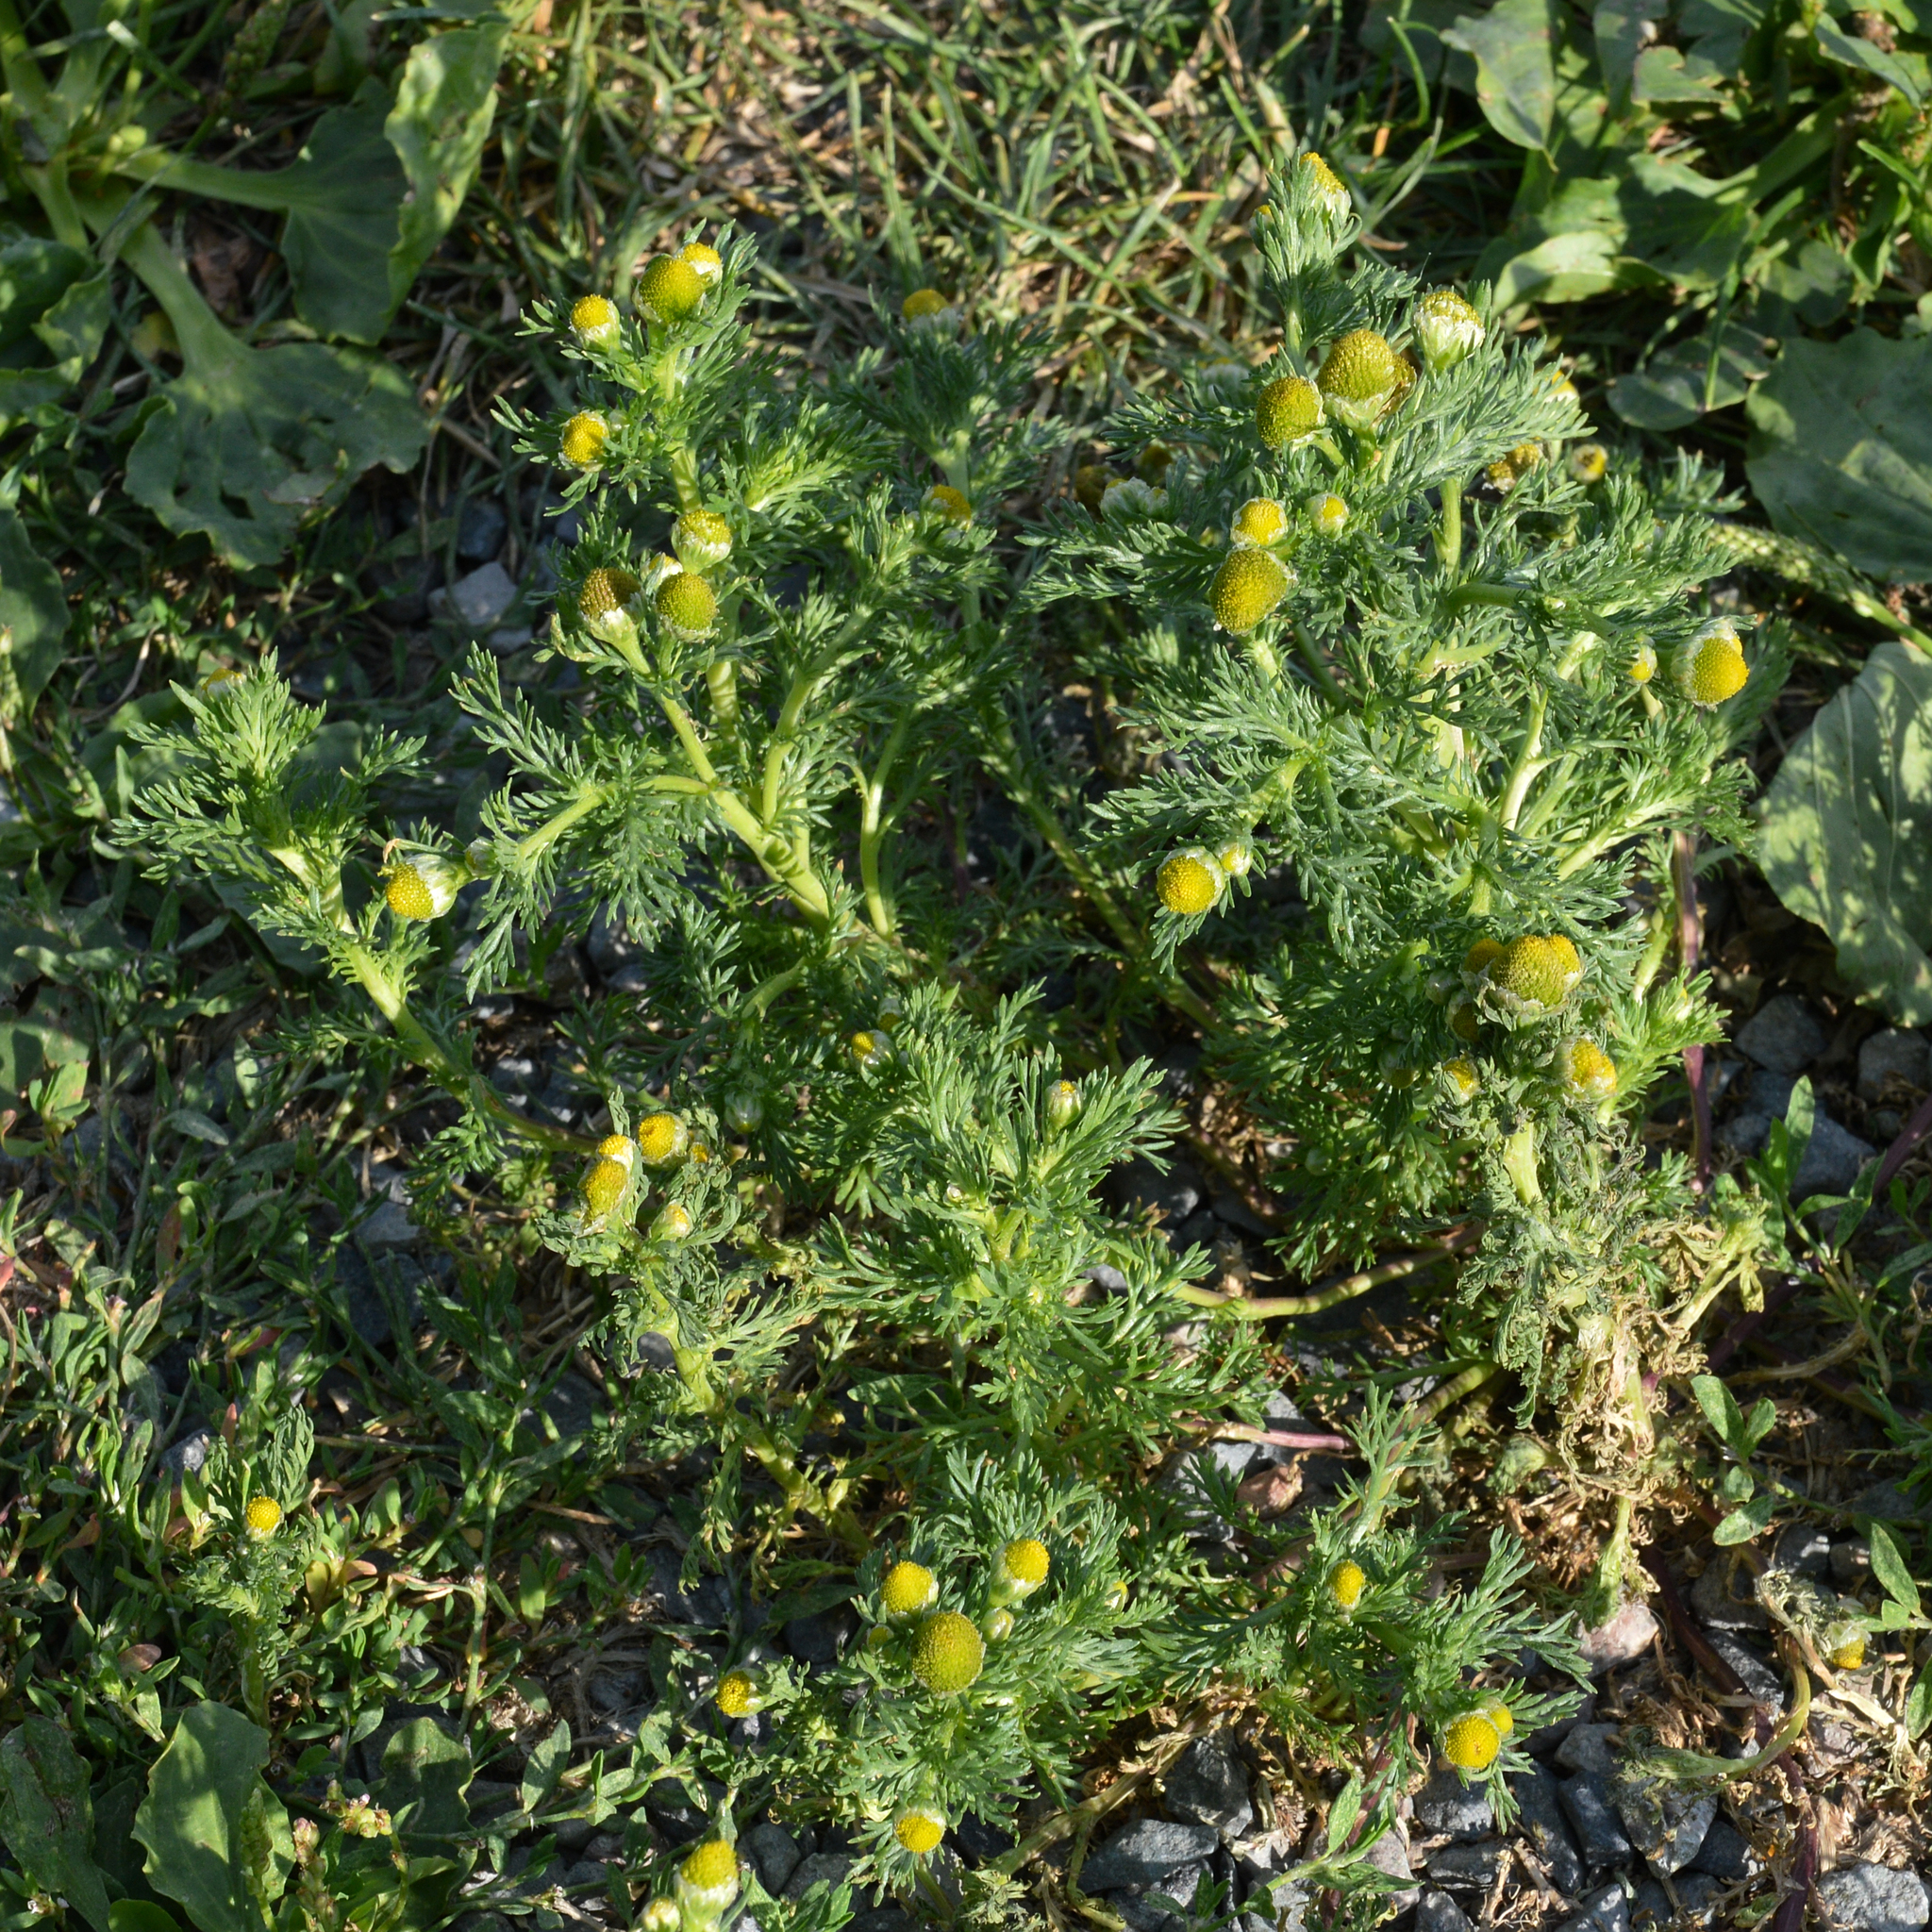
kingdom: Plantae
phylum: Tracheophyta
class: Magnoliopsida
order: Asterales
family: Asteraceae
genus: Matricaria
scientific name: Matricaria discoidea
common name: Disc mayweed
